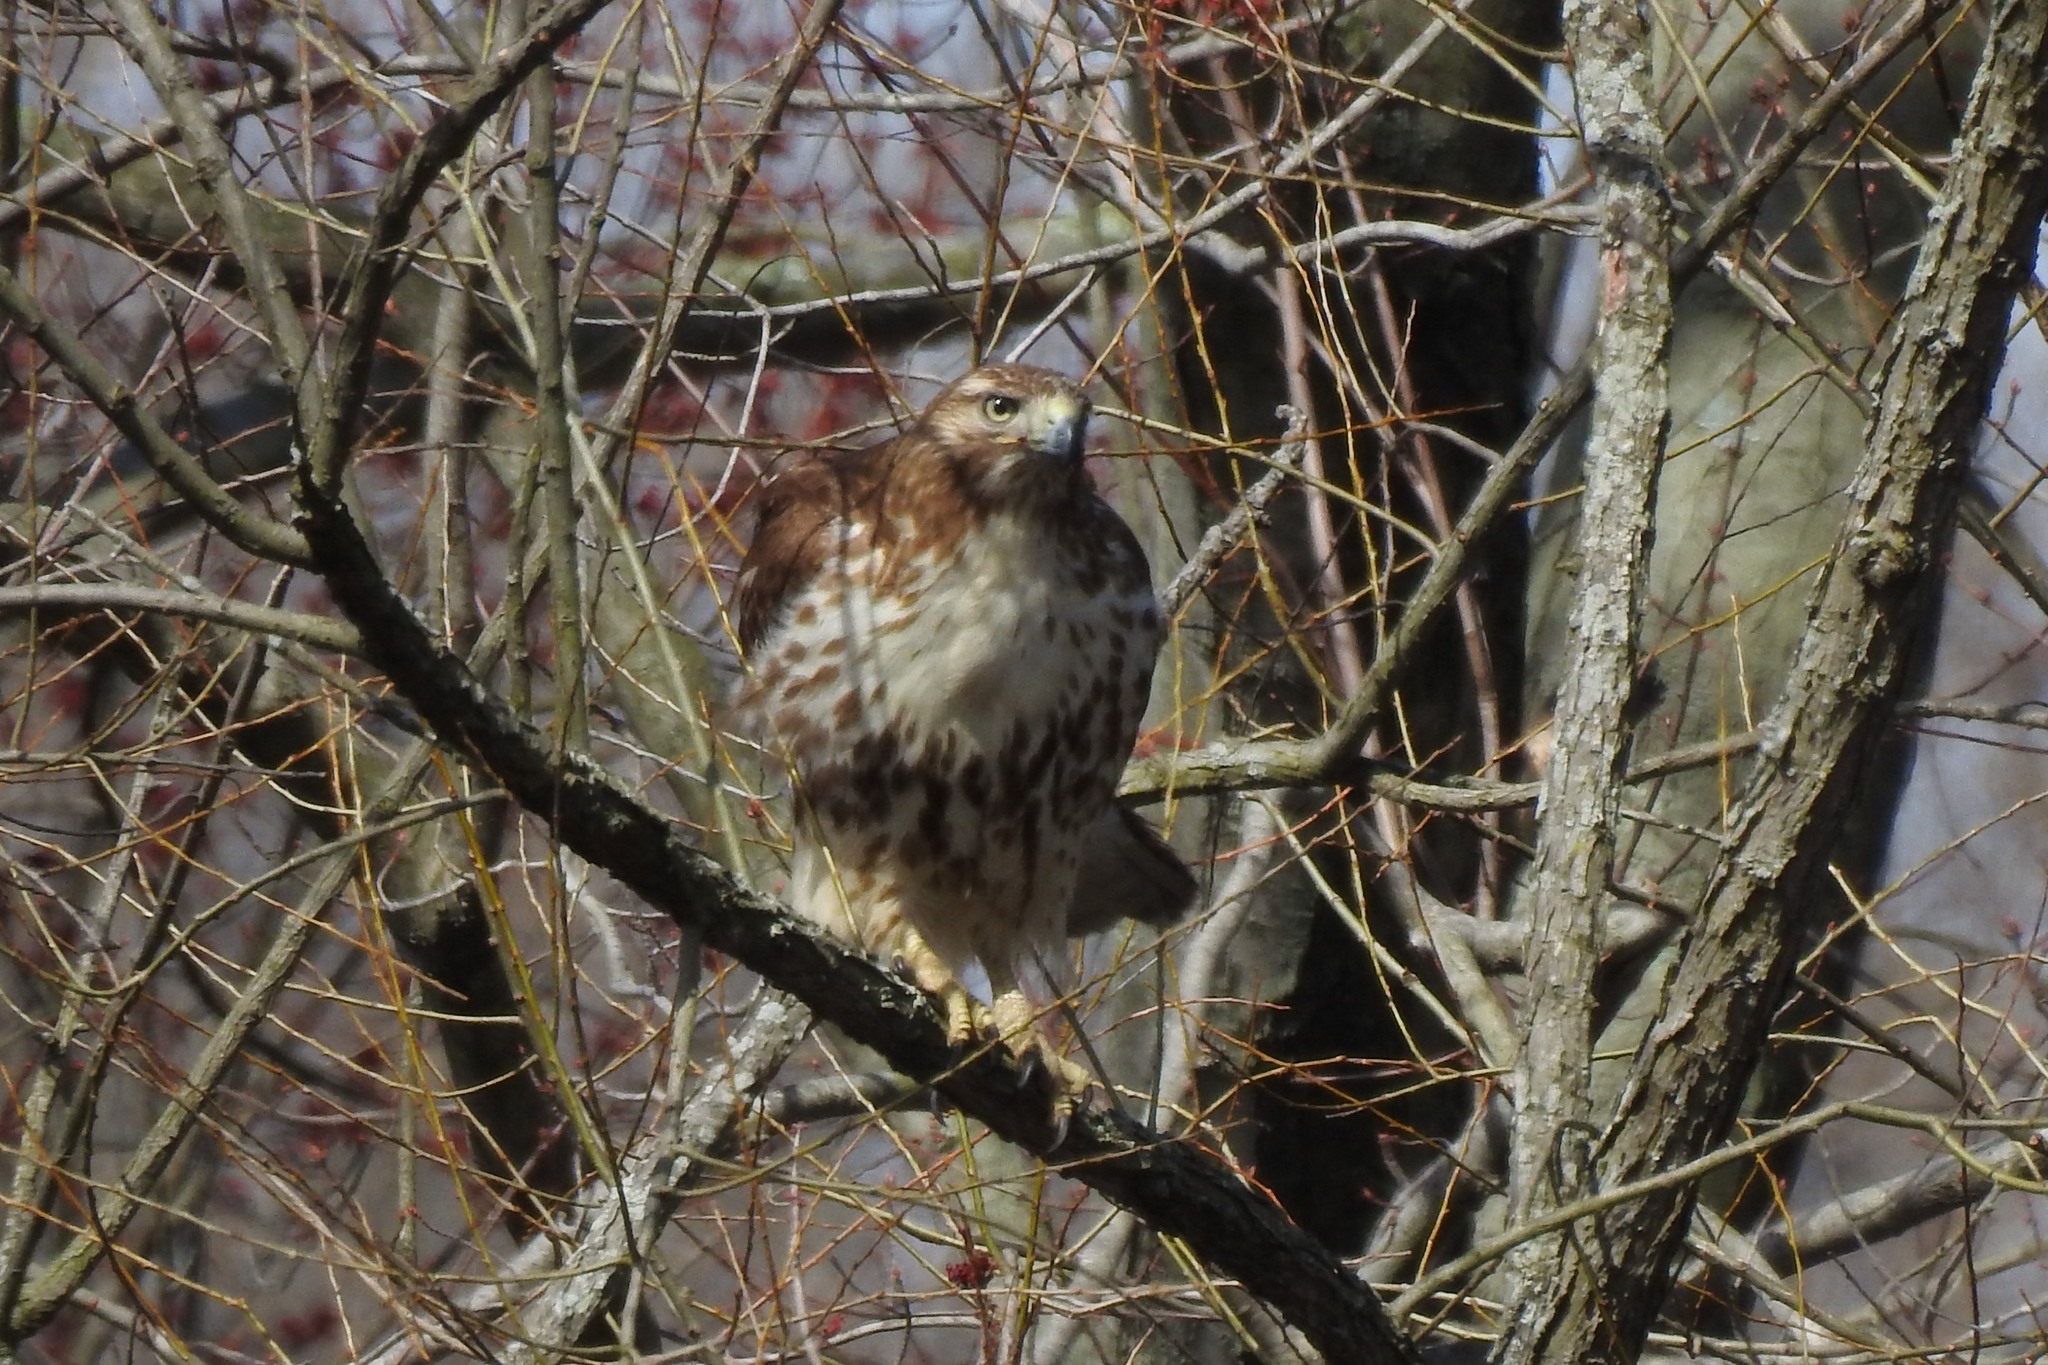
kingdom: Animalia
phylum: Chordata
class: Aves
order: Accipitriformes
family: Accipitridae
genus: Buteo
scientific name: Buteo jamaicensis
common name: Red-tailed hawk
